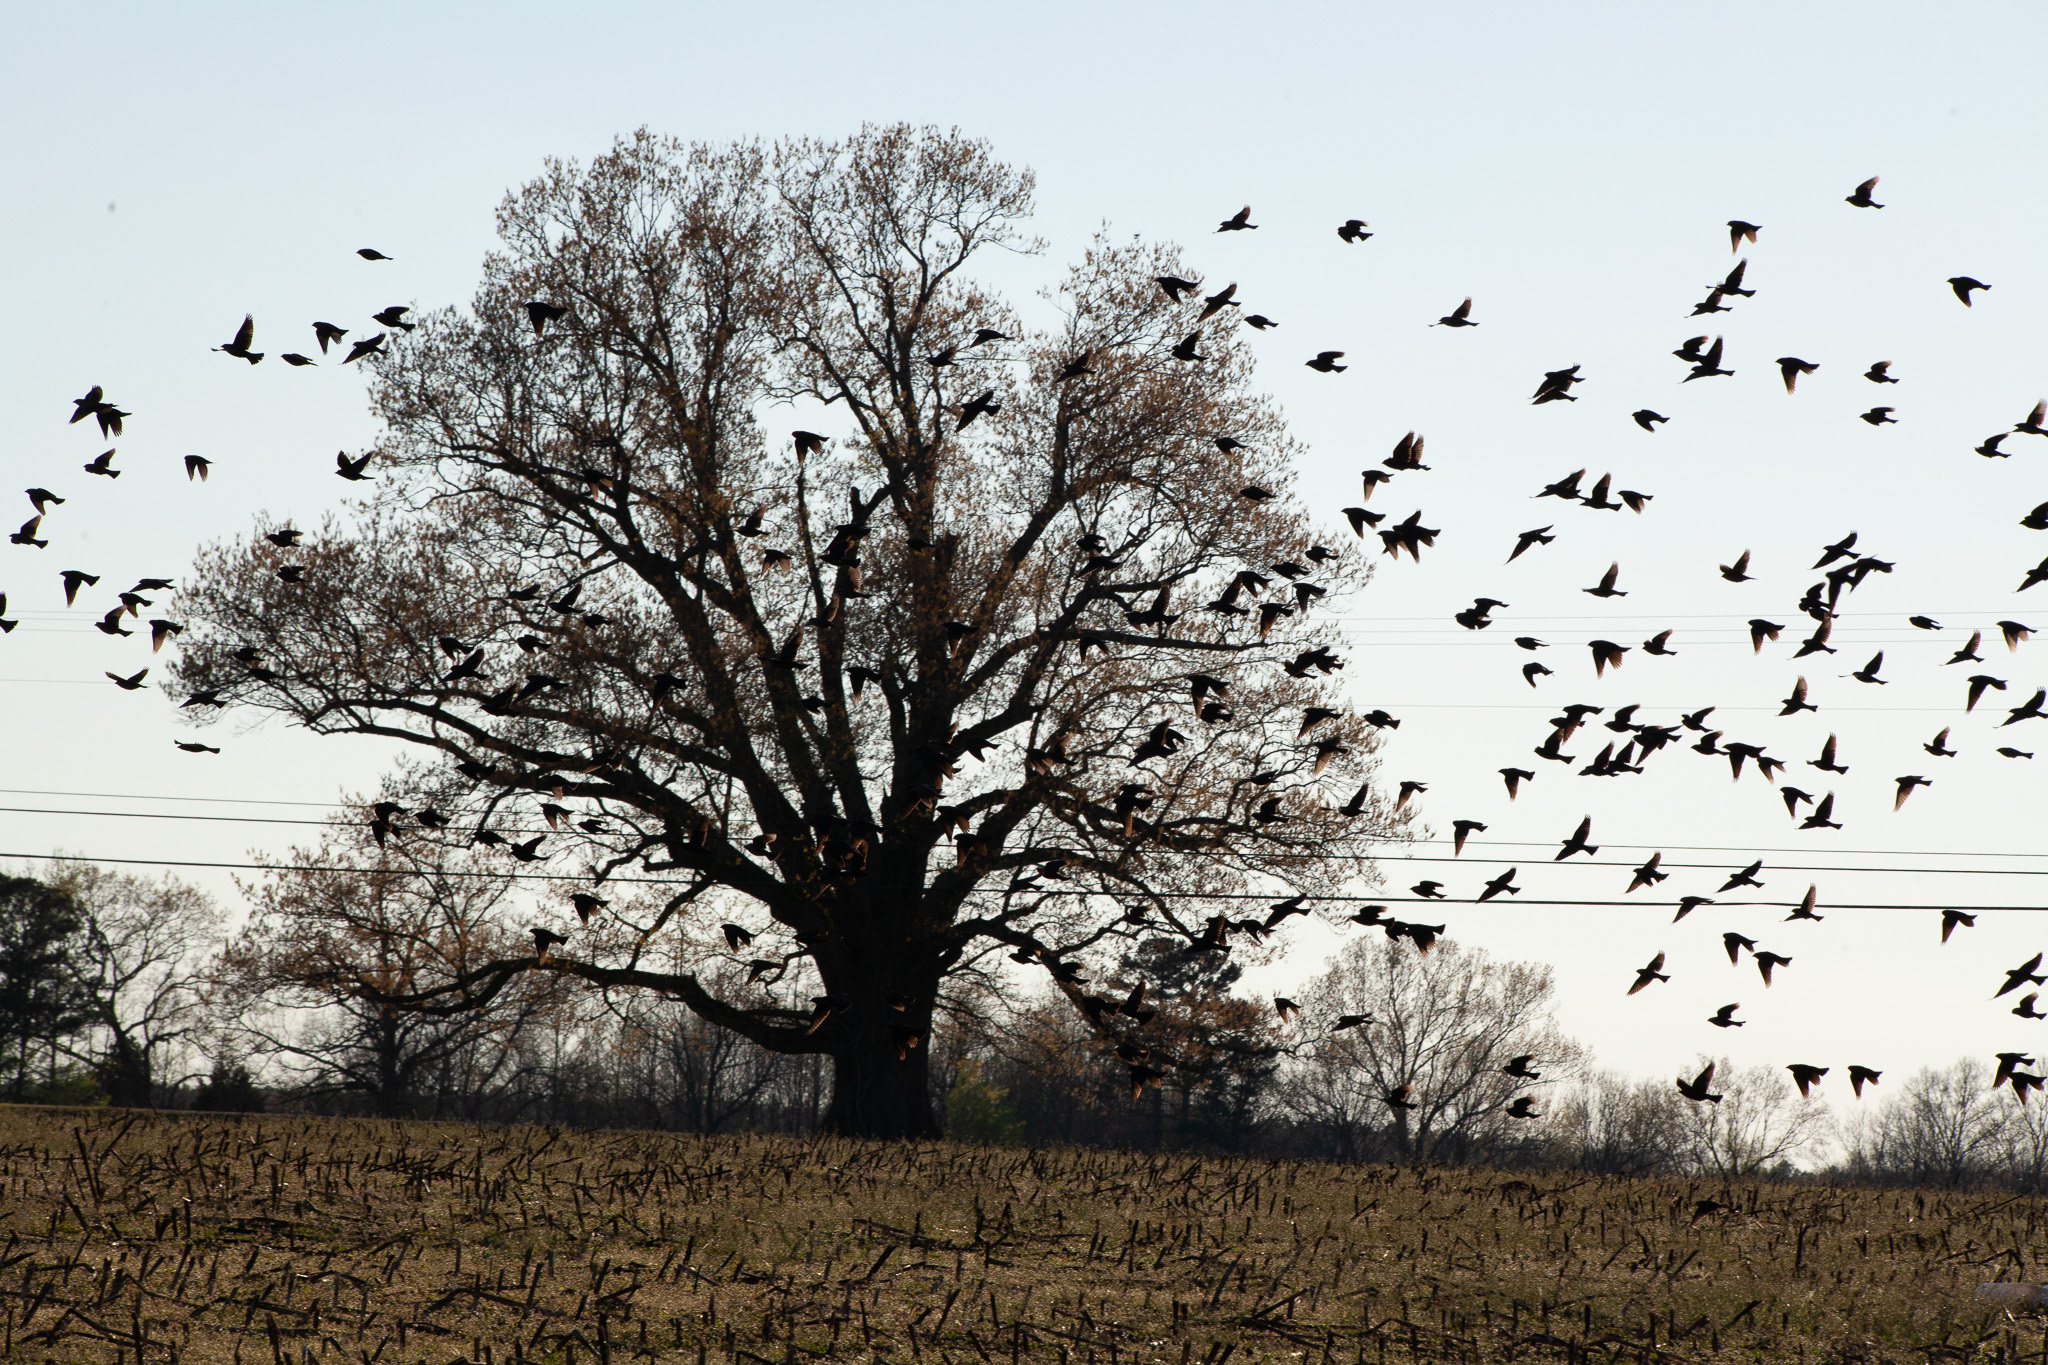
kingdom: Animalia
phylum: Chordata
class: Aves
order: Passeriformes
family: Icteridae
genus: Molothrus
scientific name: Molothrus ater
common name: Brown-headed cowbird
